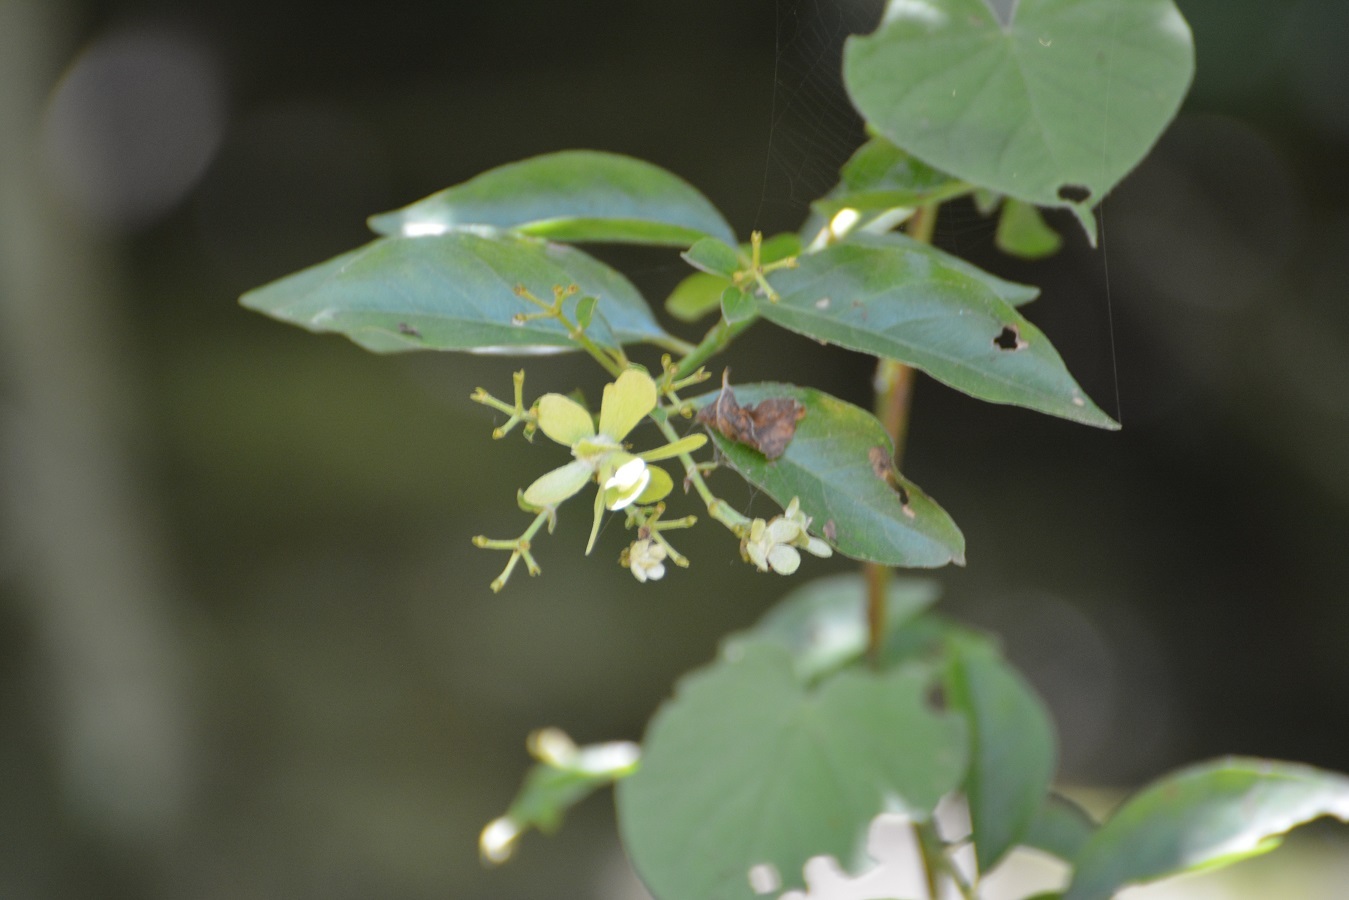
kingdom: Plantae
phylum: Tracheophyta
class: Magnoliopsida
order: Malpighiales
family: Malpighiaceae
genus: Tetrapterys
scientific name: Tetrapterys schiedeana
